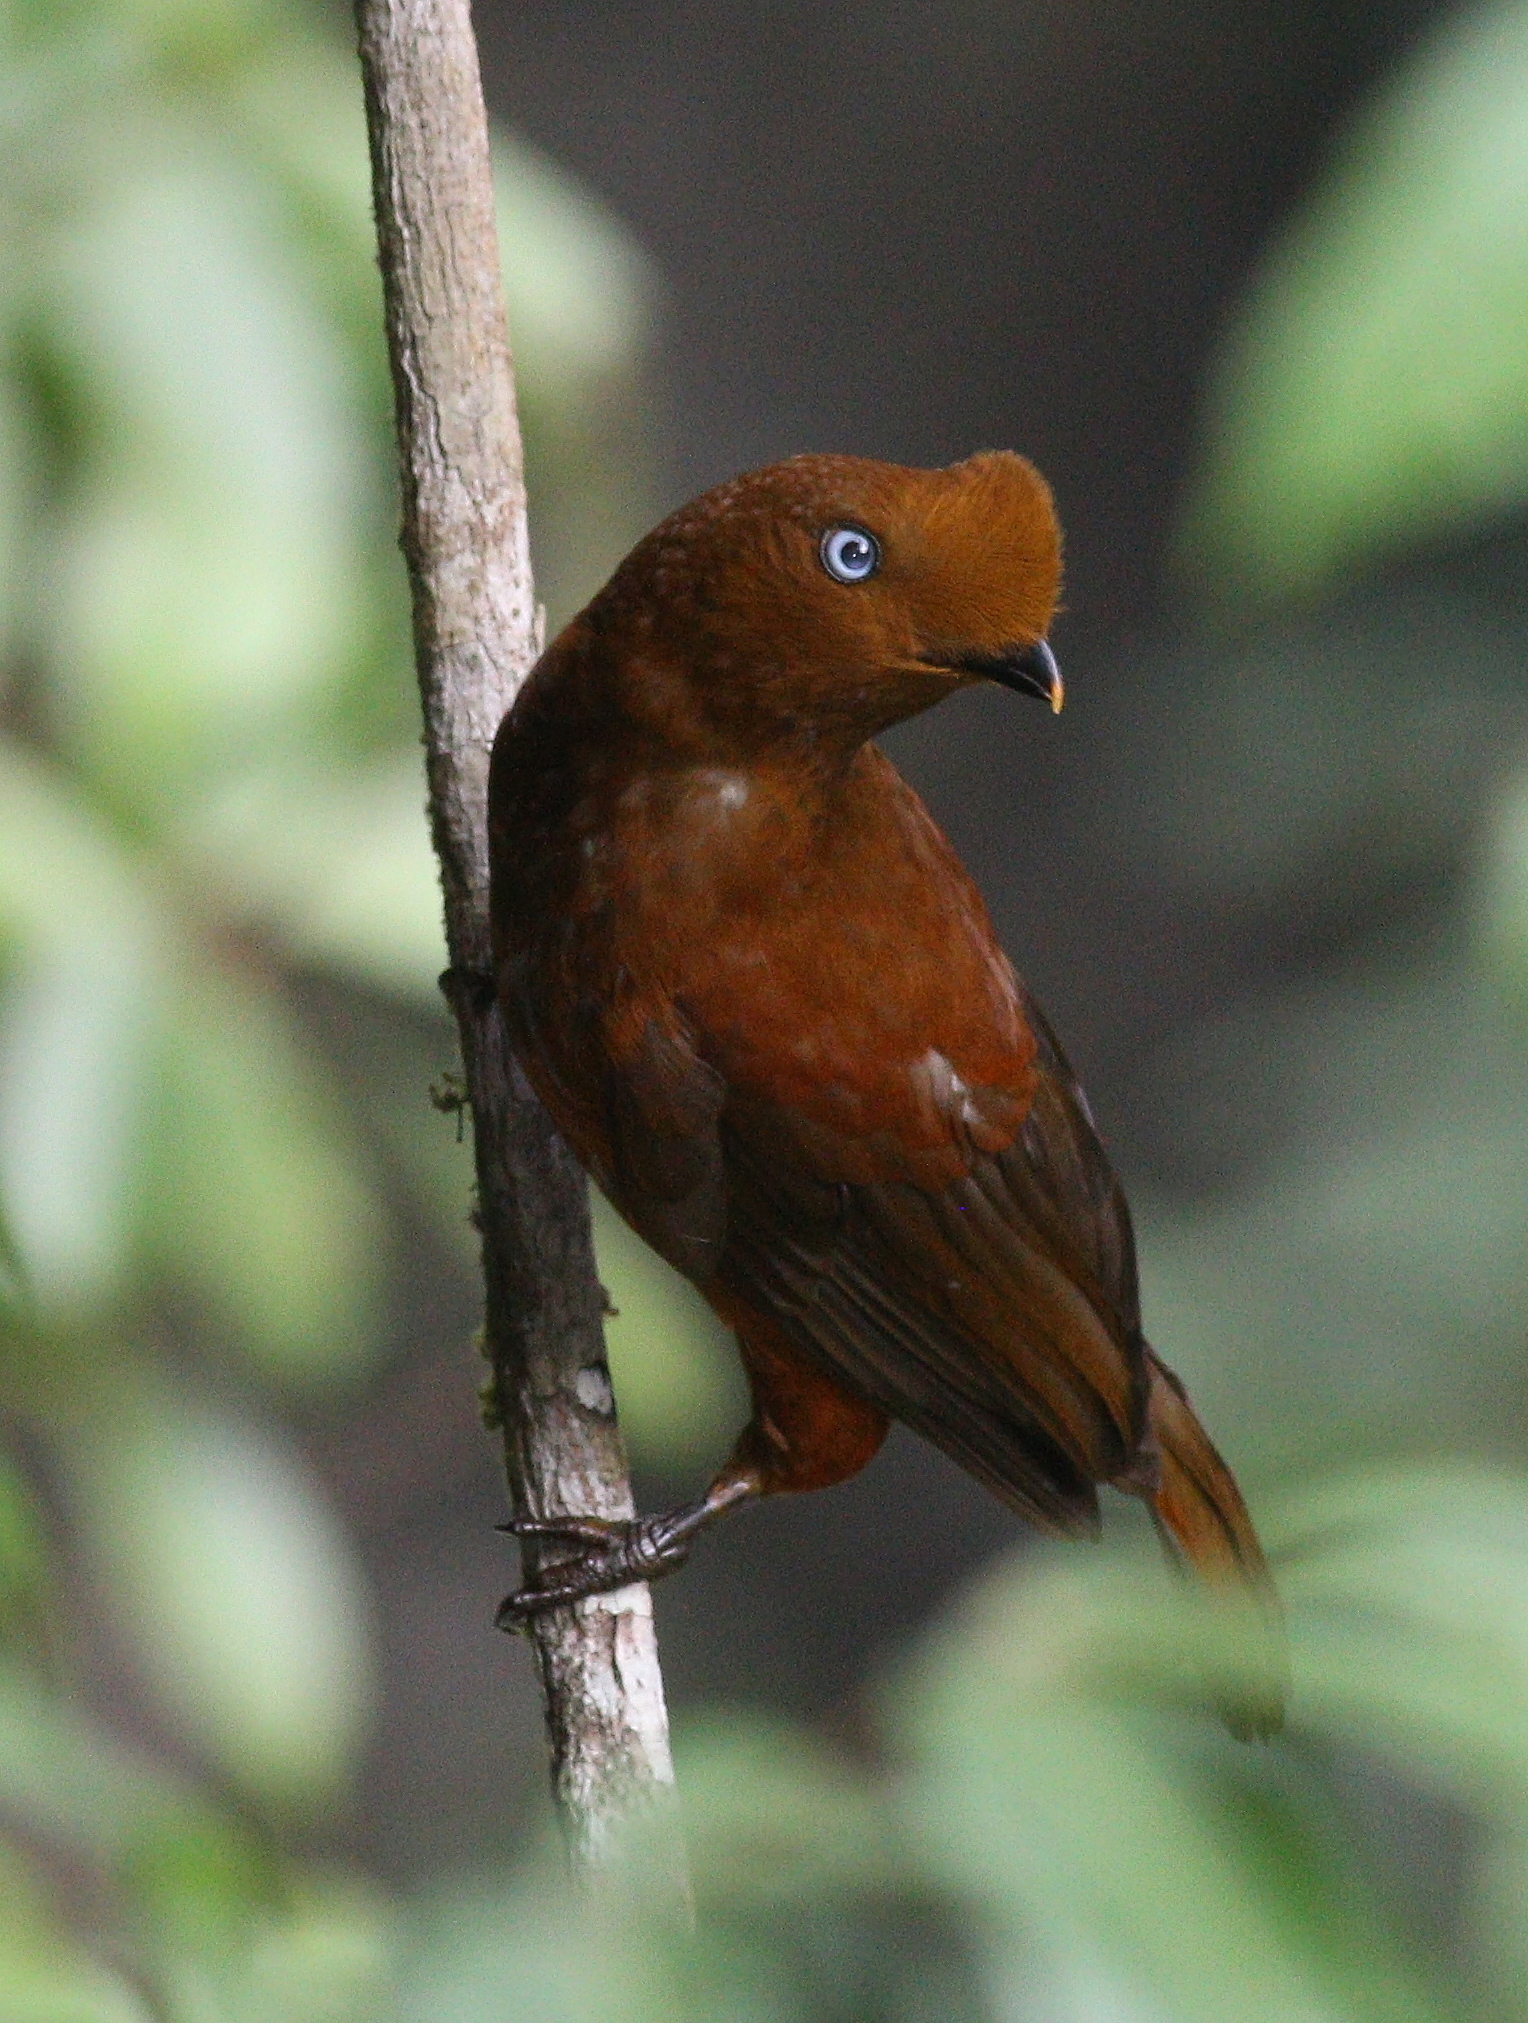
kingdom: Animalia
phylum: Chordata
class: Aves
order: Passeriformes
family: Cotingidae
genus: Rupicola
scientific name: Rupicola peruvianus
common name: Andean cock-of-the-rock
